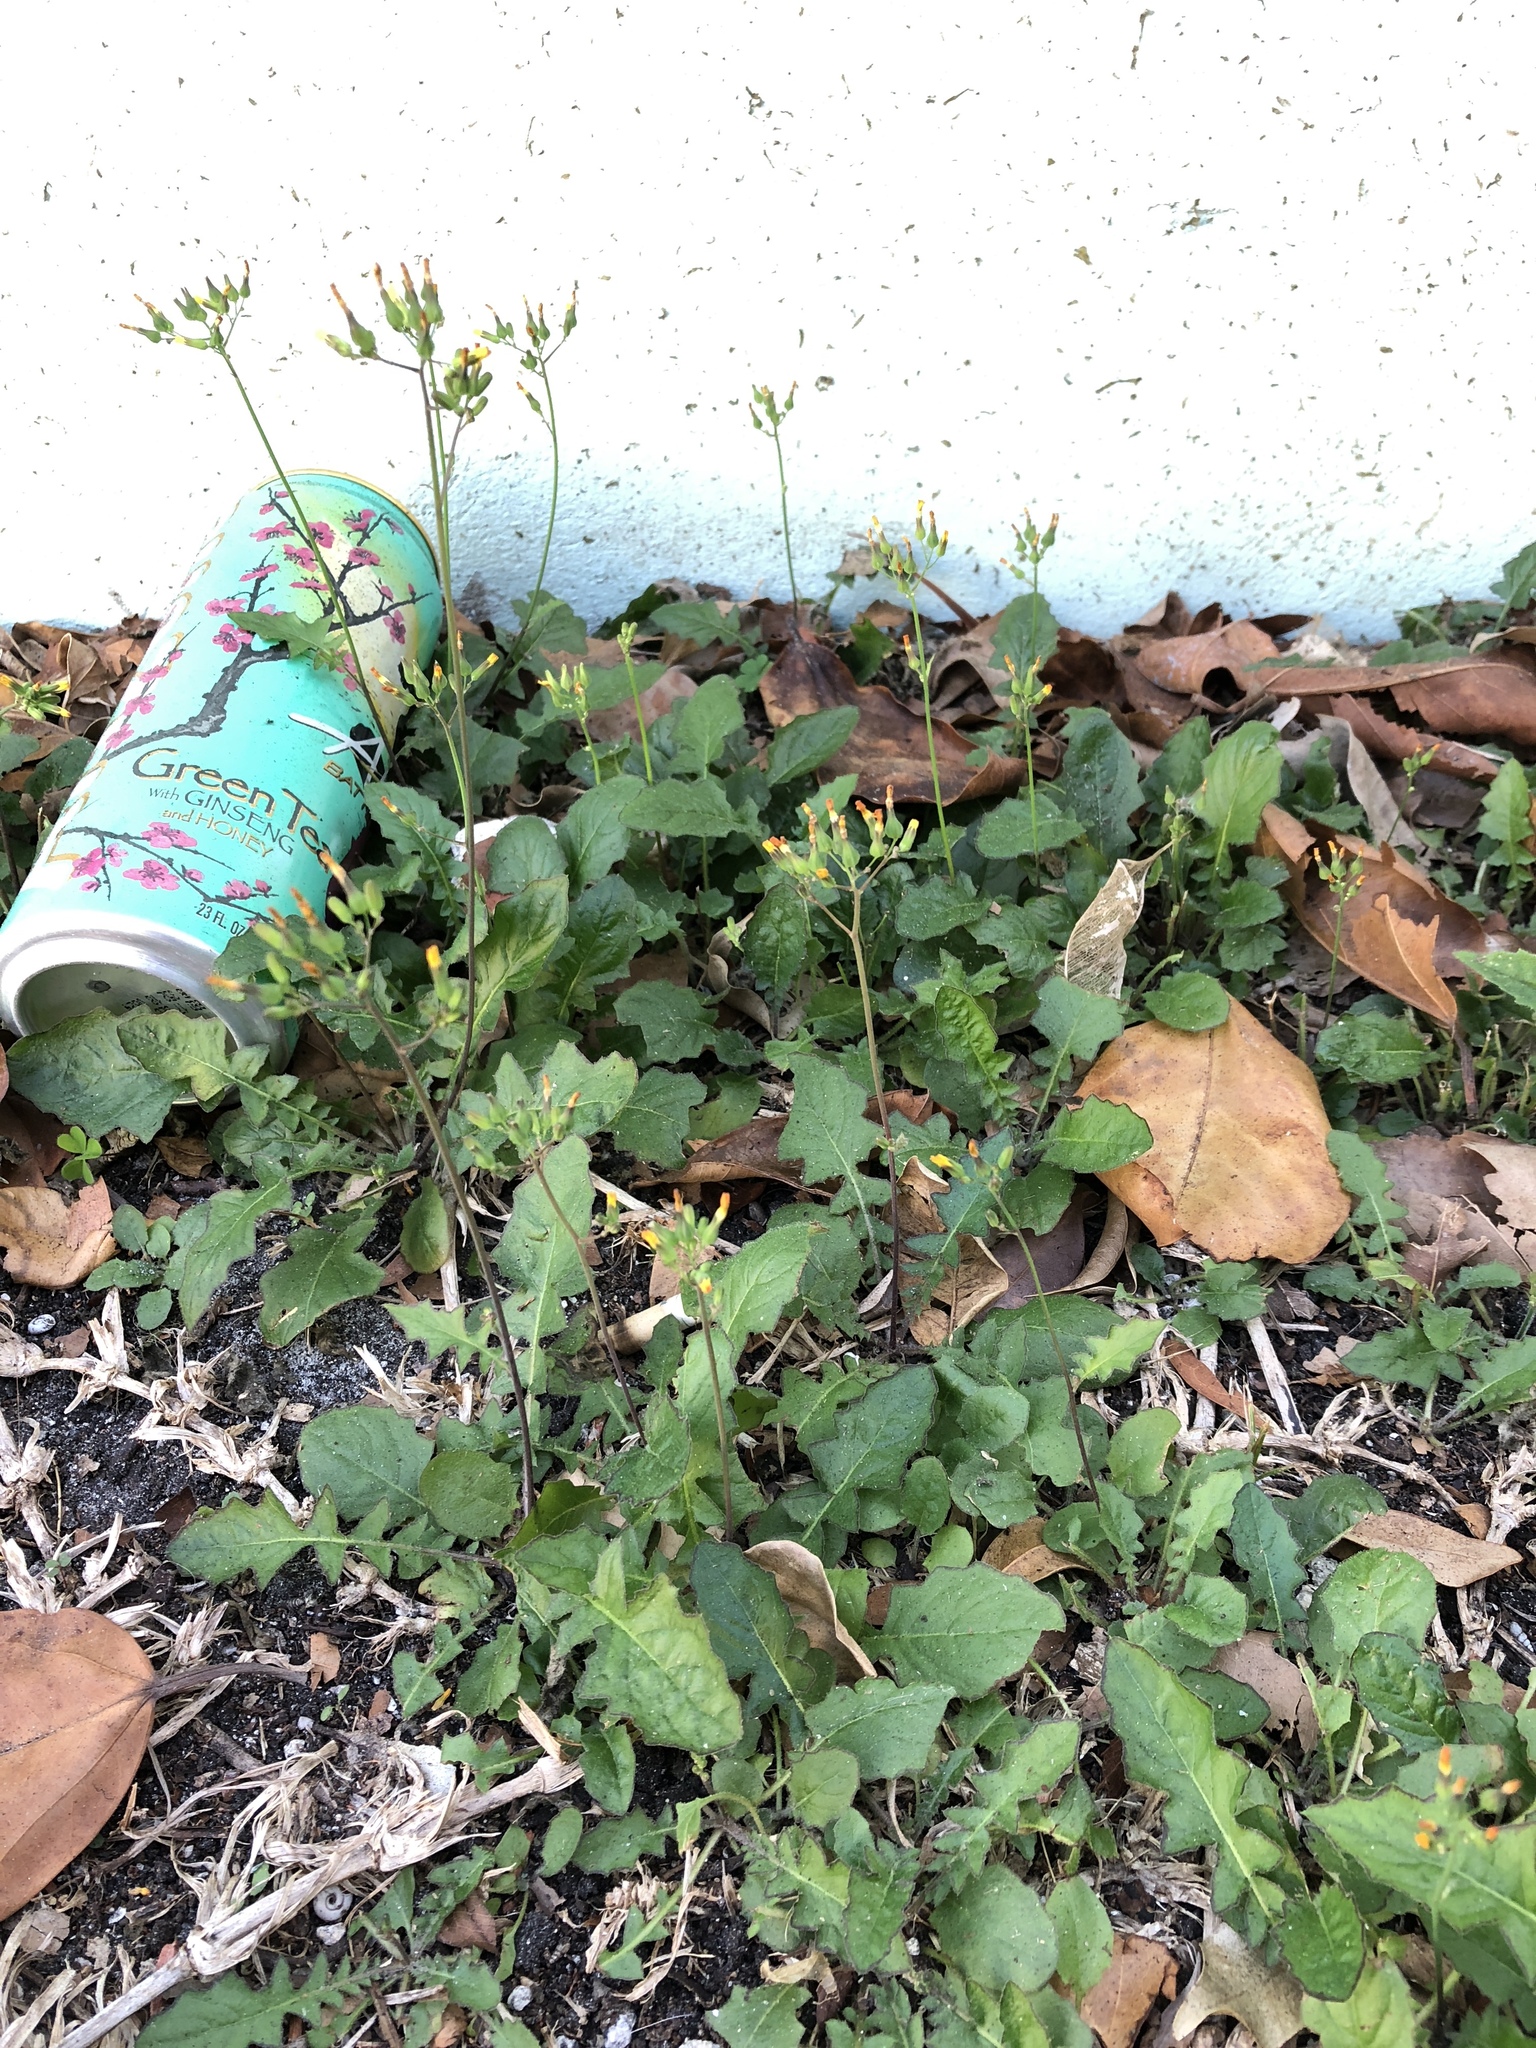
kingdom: Plantae
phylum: Tracheophyta
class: Magnoliopsida
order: Asterales
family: Asteraceae
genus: Youngia
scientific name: Youngia japonica
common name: Oriental false hawksbeard
